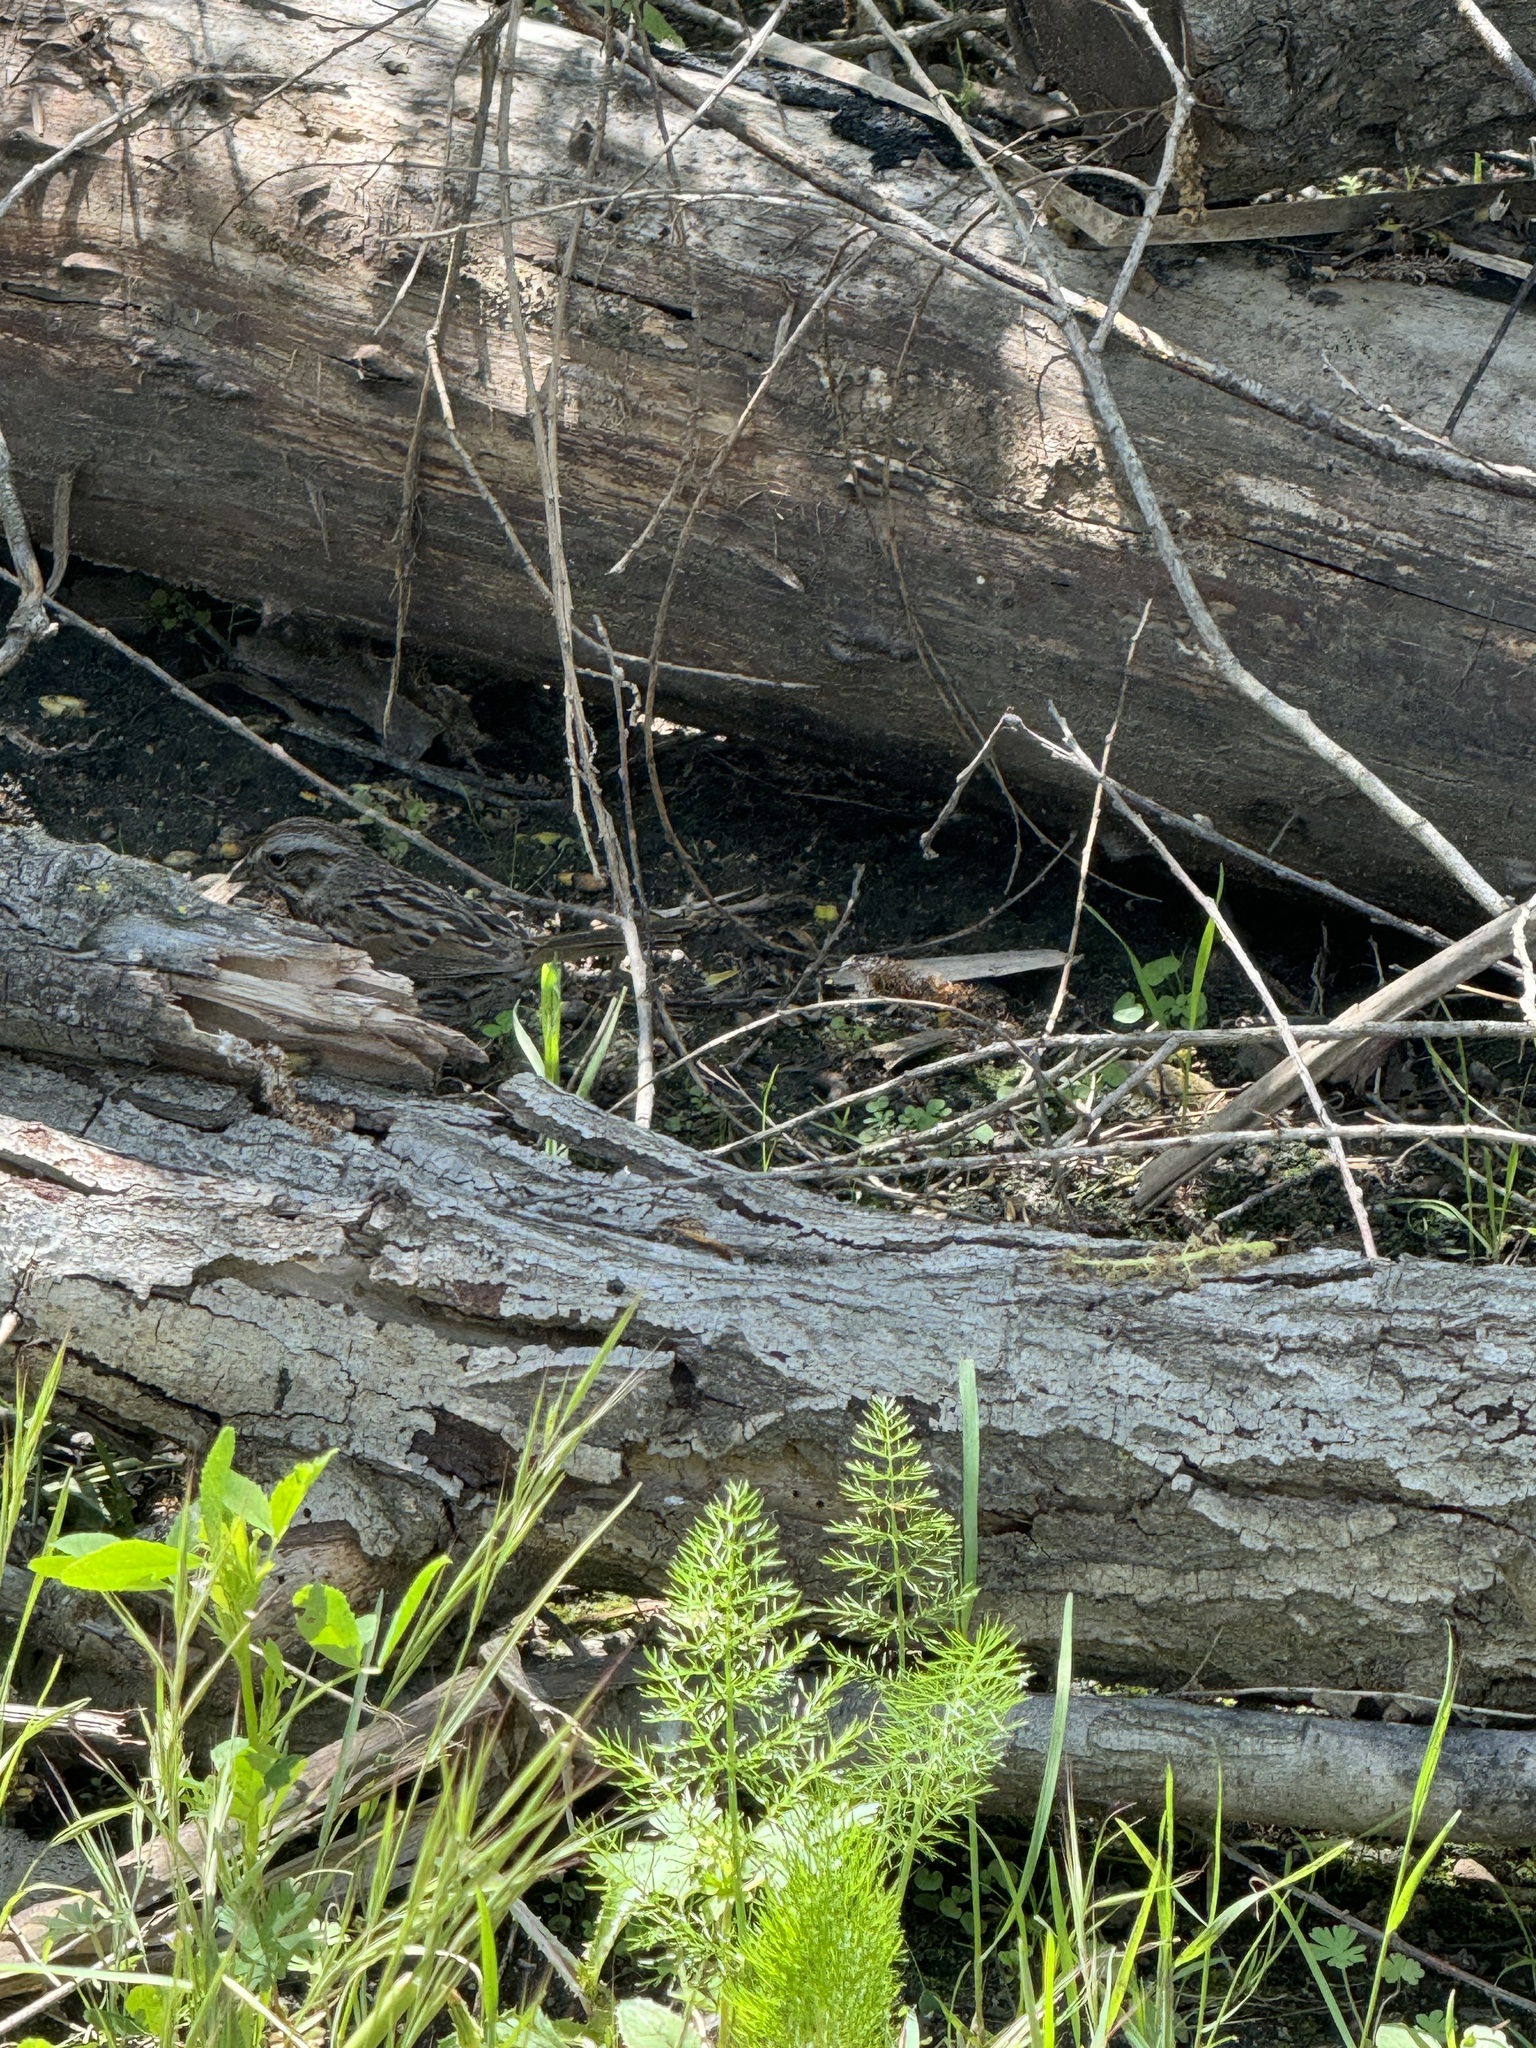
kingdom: Animalia
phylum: Chordata
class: Aves
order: Passeriformes
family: Passerellidae
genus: Melospiza
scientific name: Melospiza melodia
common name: Song sparrow
